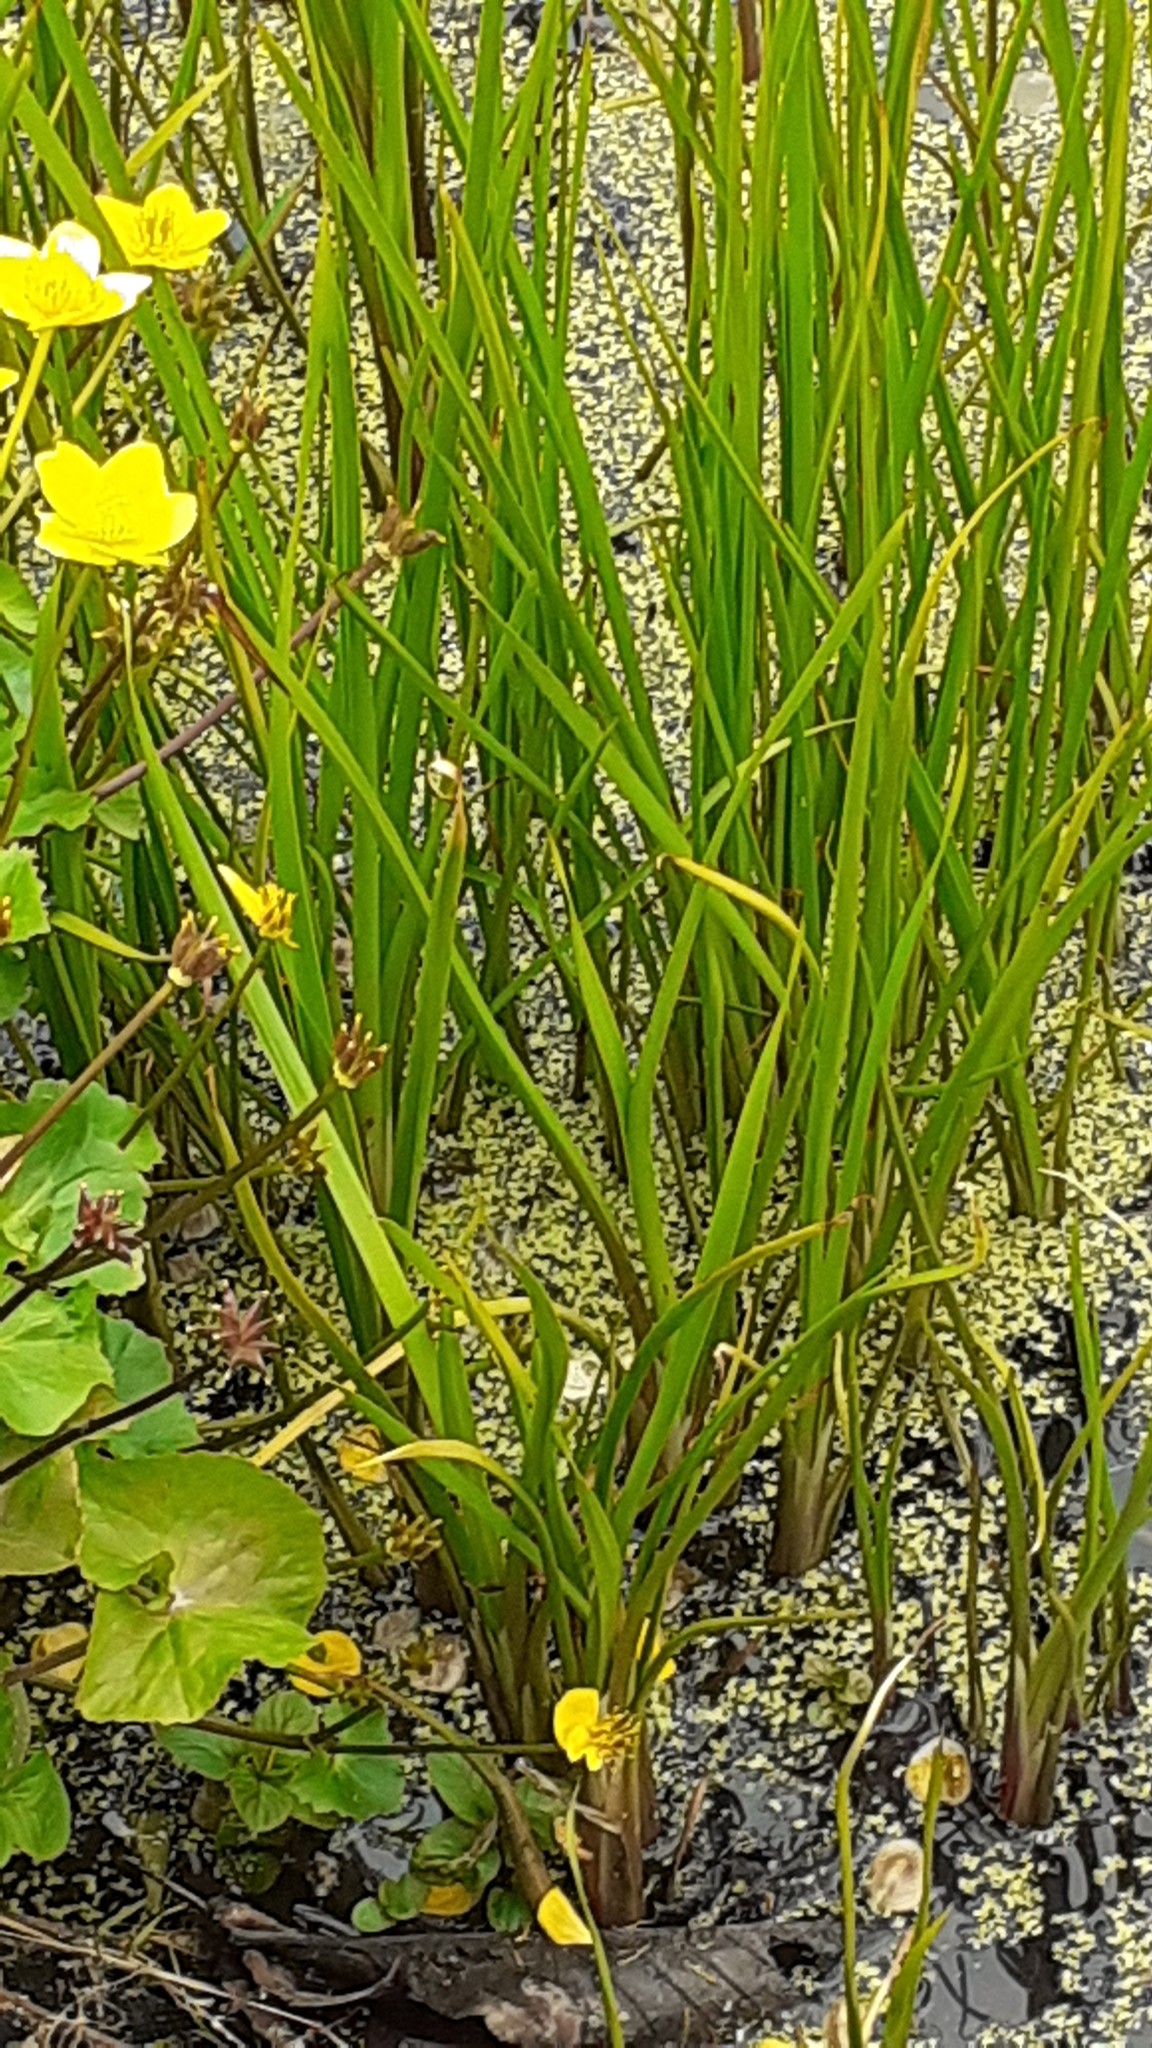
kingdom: Plantae
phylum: Tracheophyta
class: Liliopsida
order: Alismatales
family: Butomaceae
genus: Butomus
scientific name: Butomus umbellatus
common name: Flowering-rush
